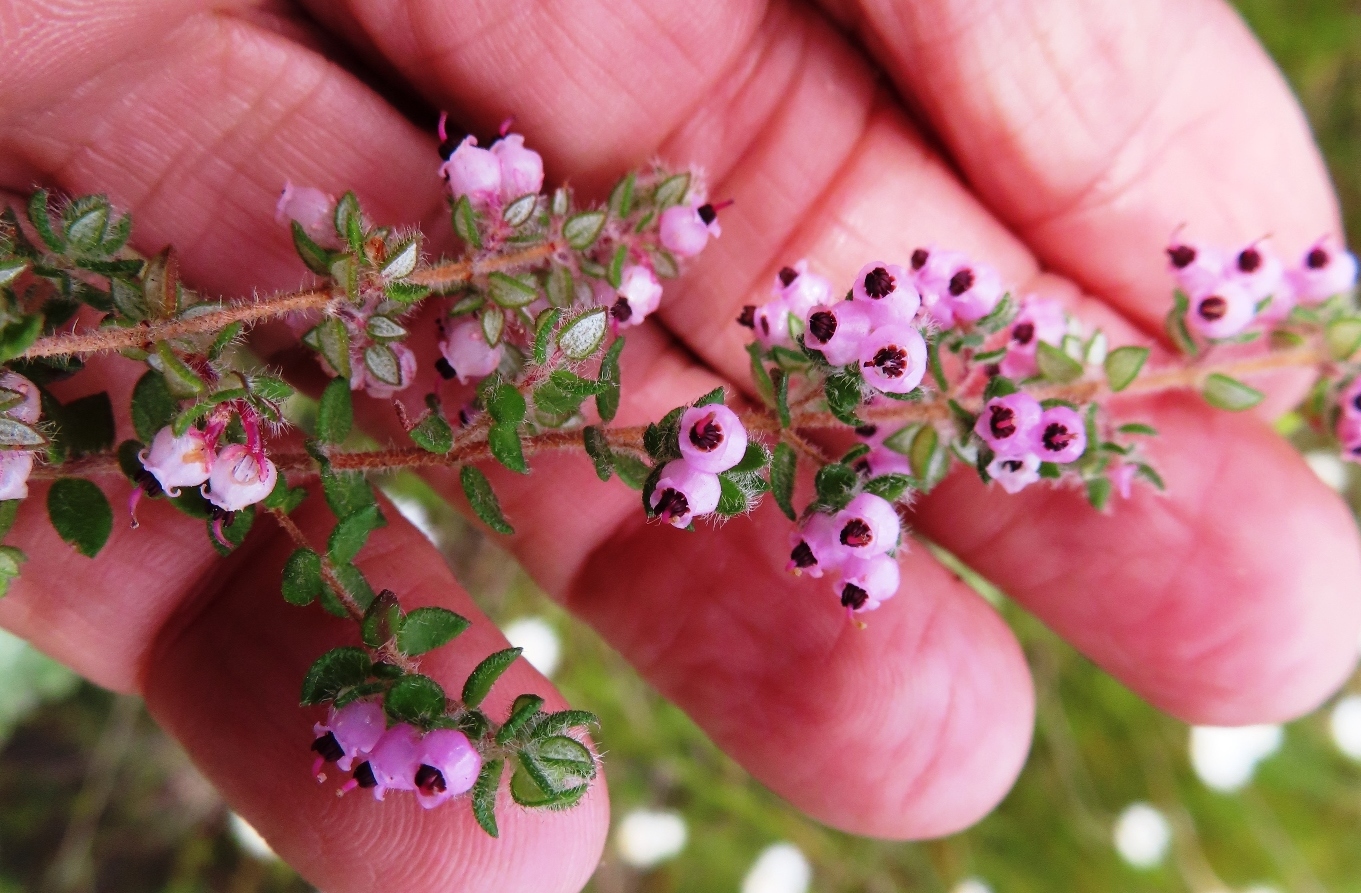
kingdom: Plantae
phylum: Tracheophyta
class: Magnoliopsida
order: Ericales
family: Ericaceae
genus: Erica
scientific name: Erica grata
